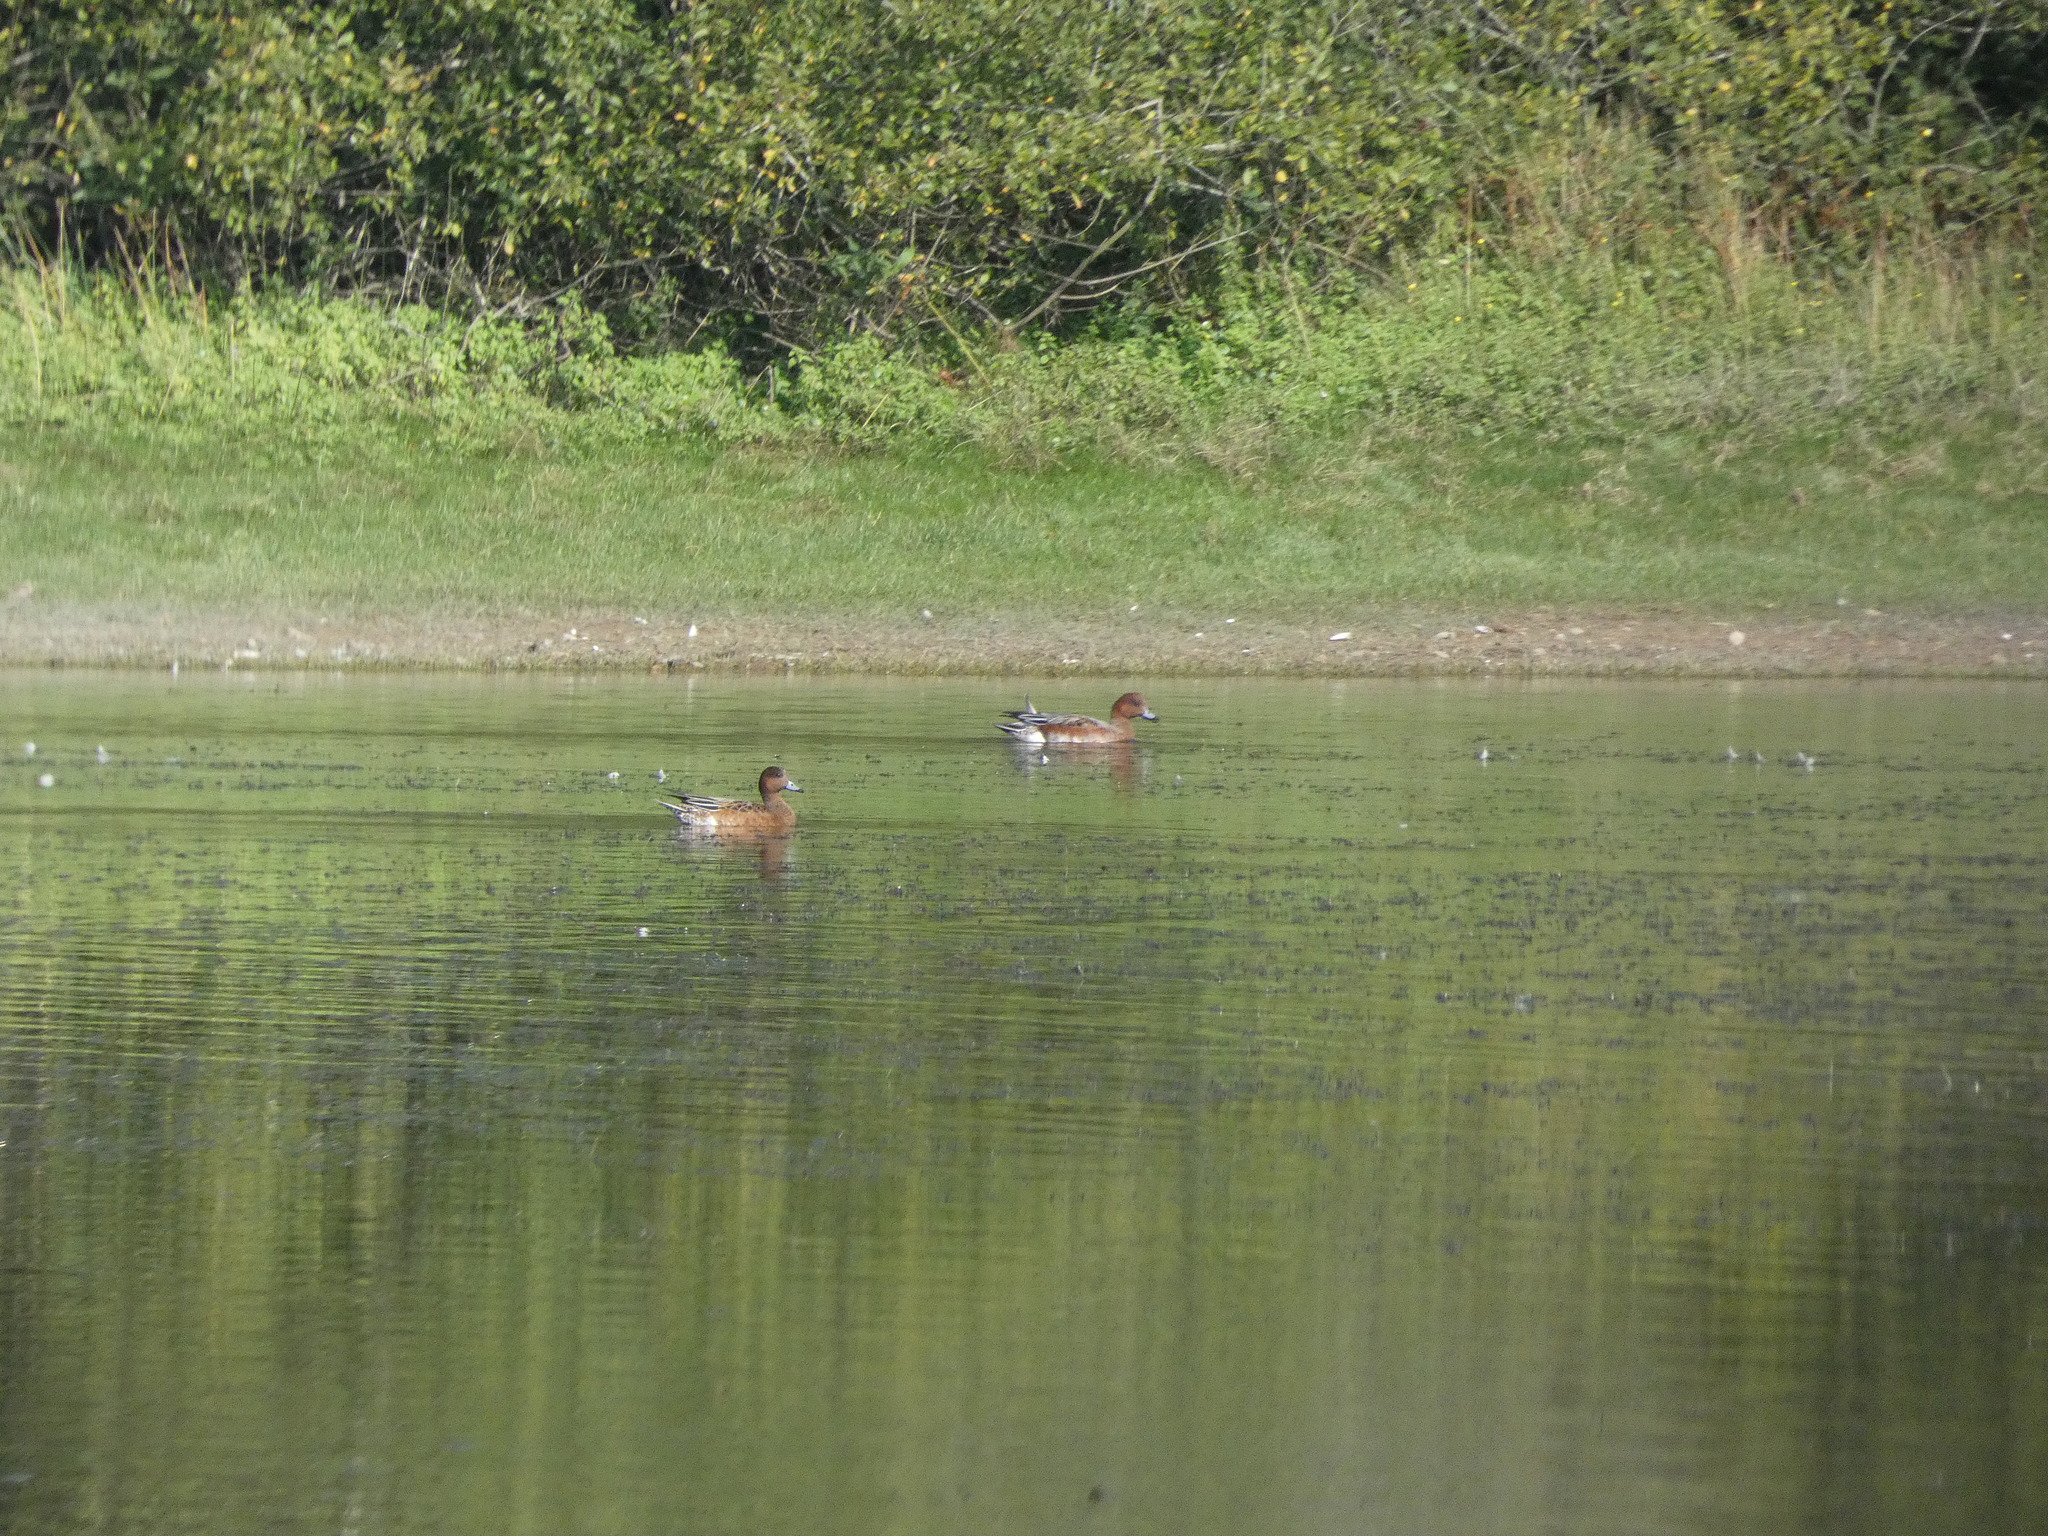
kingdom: Animalia
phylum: Chordata
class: Aves
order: Anseriformes
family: Anatidae
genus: Mareca
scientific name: Mareca penelope
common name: Eurasian wigeon
